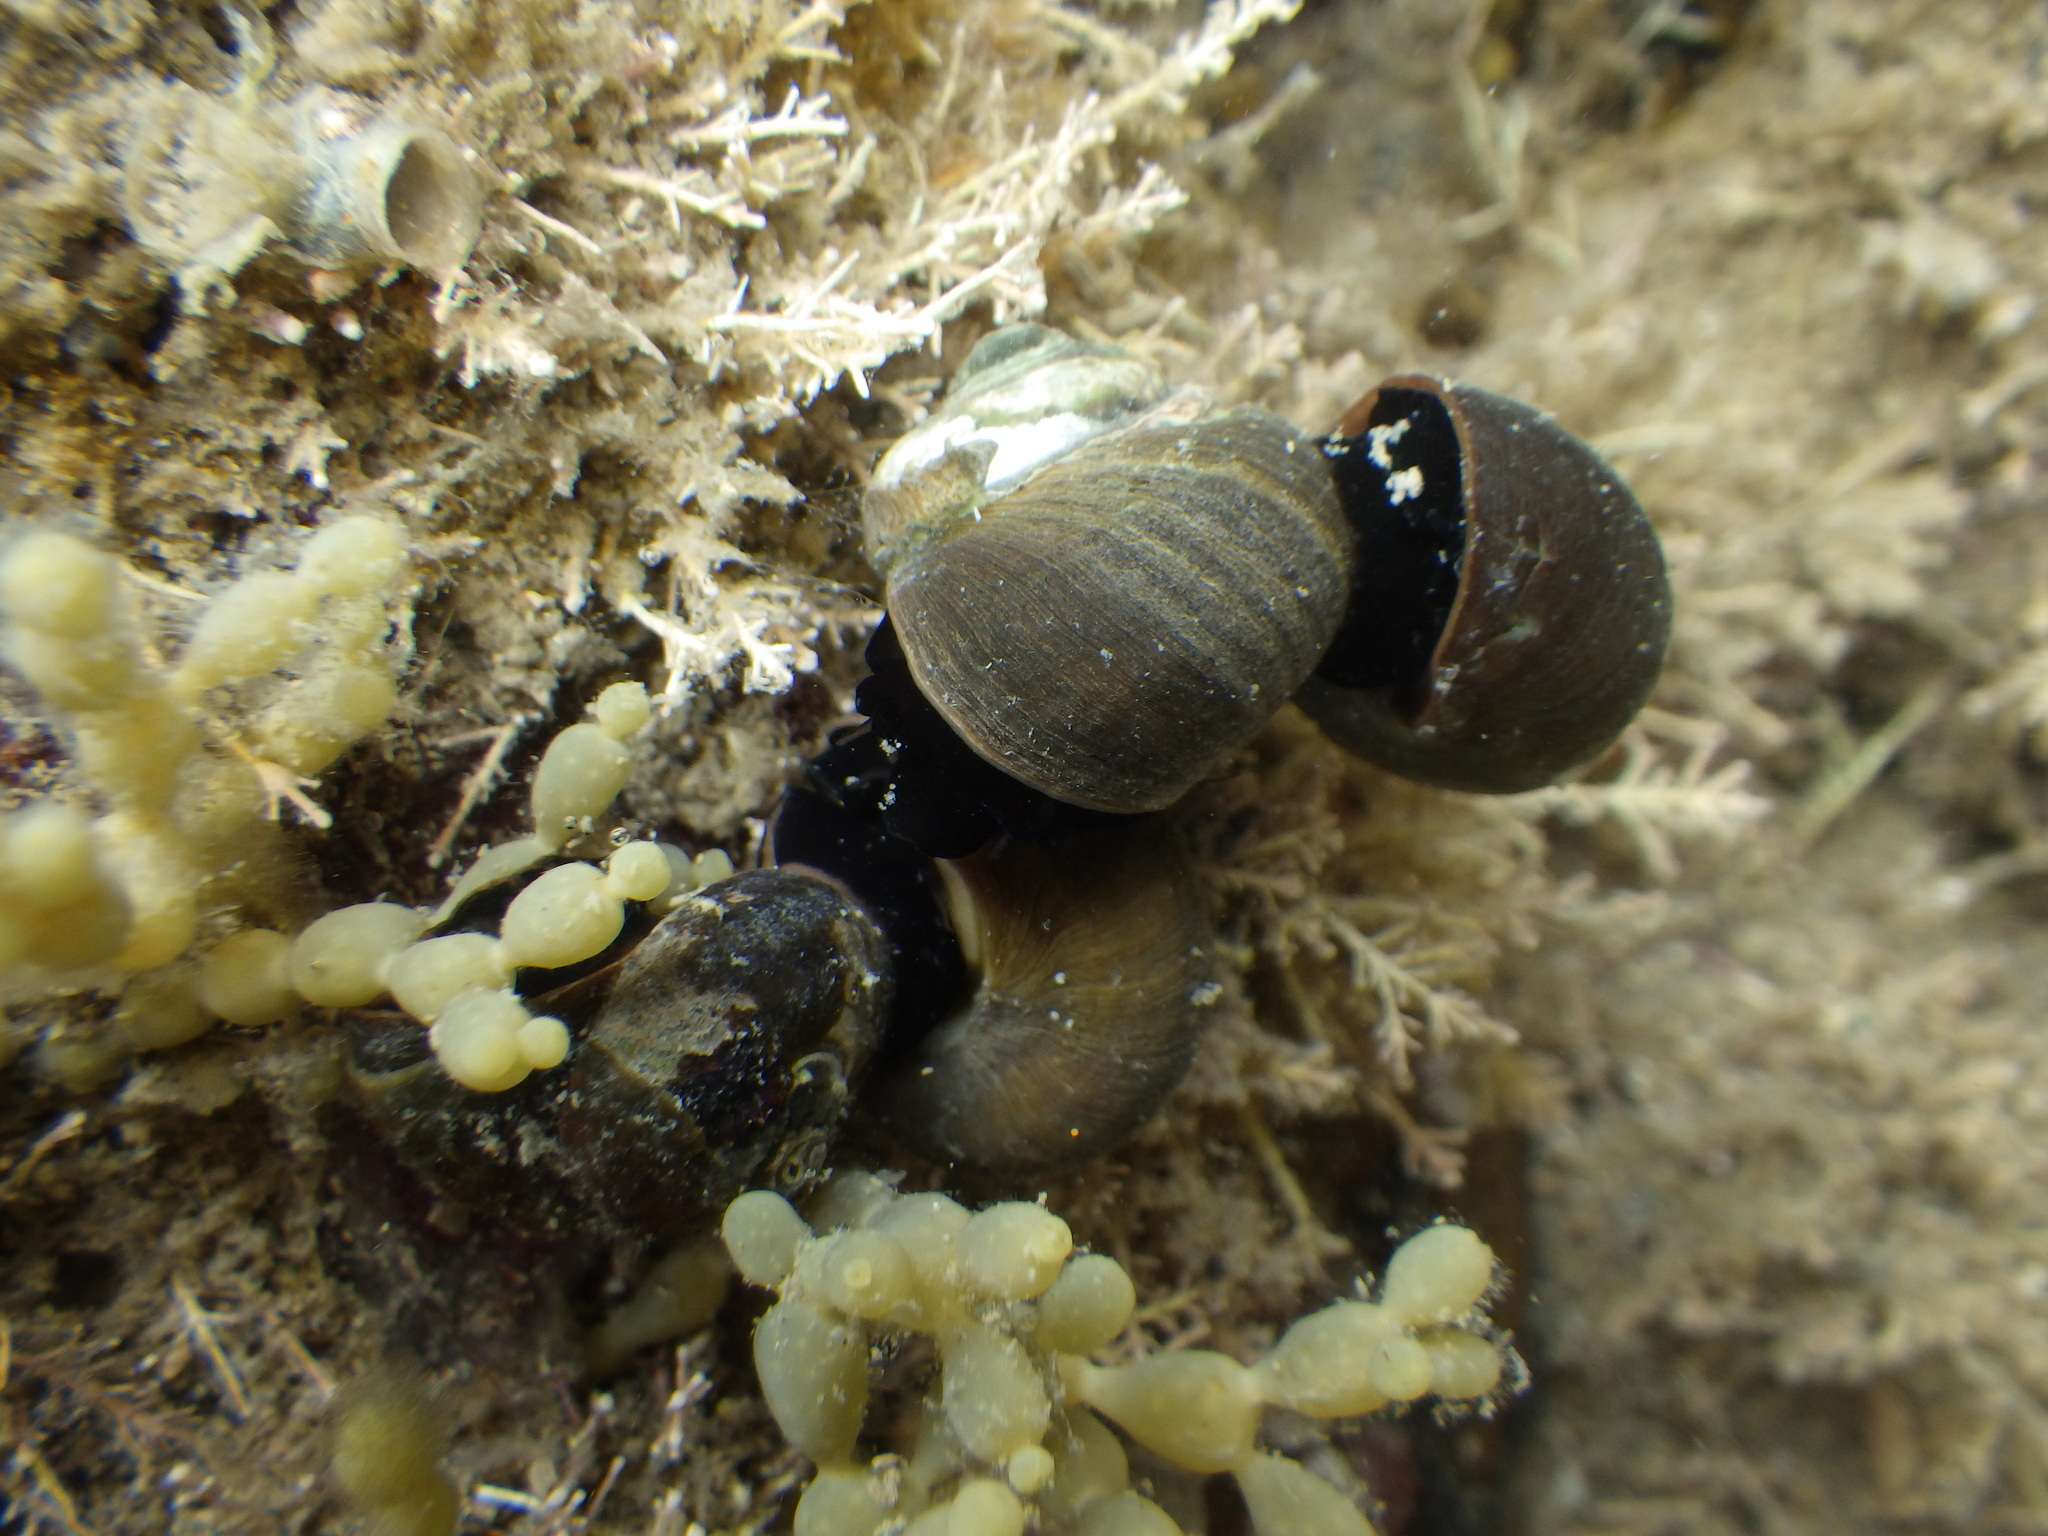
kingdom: Animalia
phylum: Mollusca
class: Gastropoda
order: Trochida
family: Turbinidae
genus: Lunella
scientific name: Lunella smaragda
